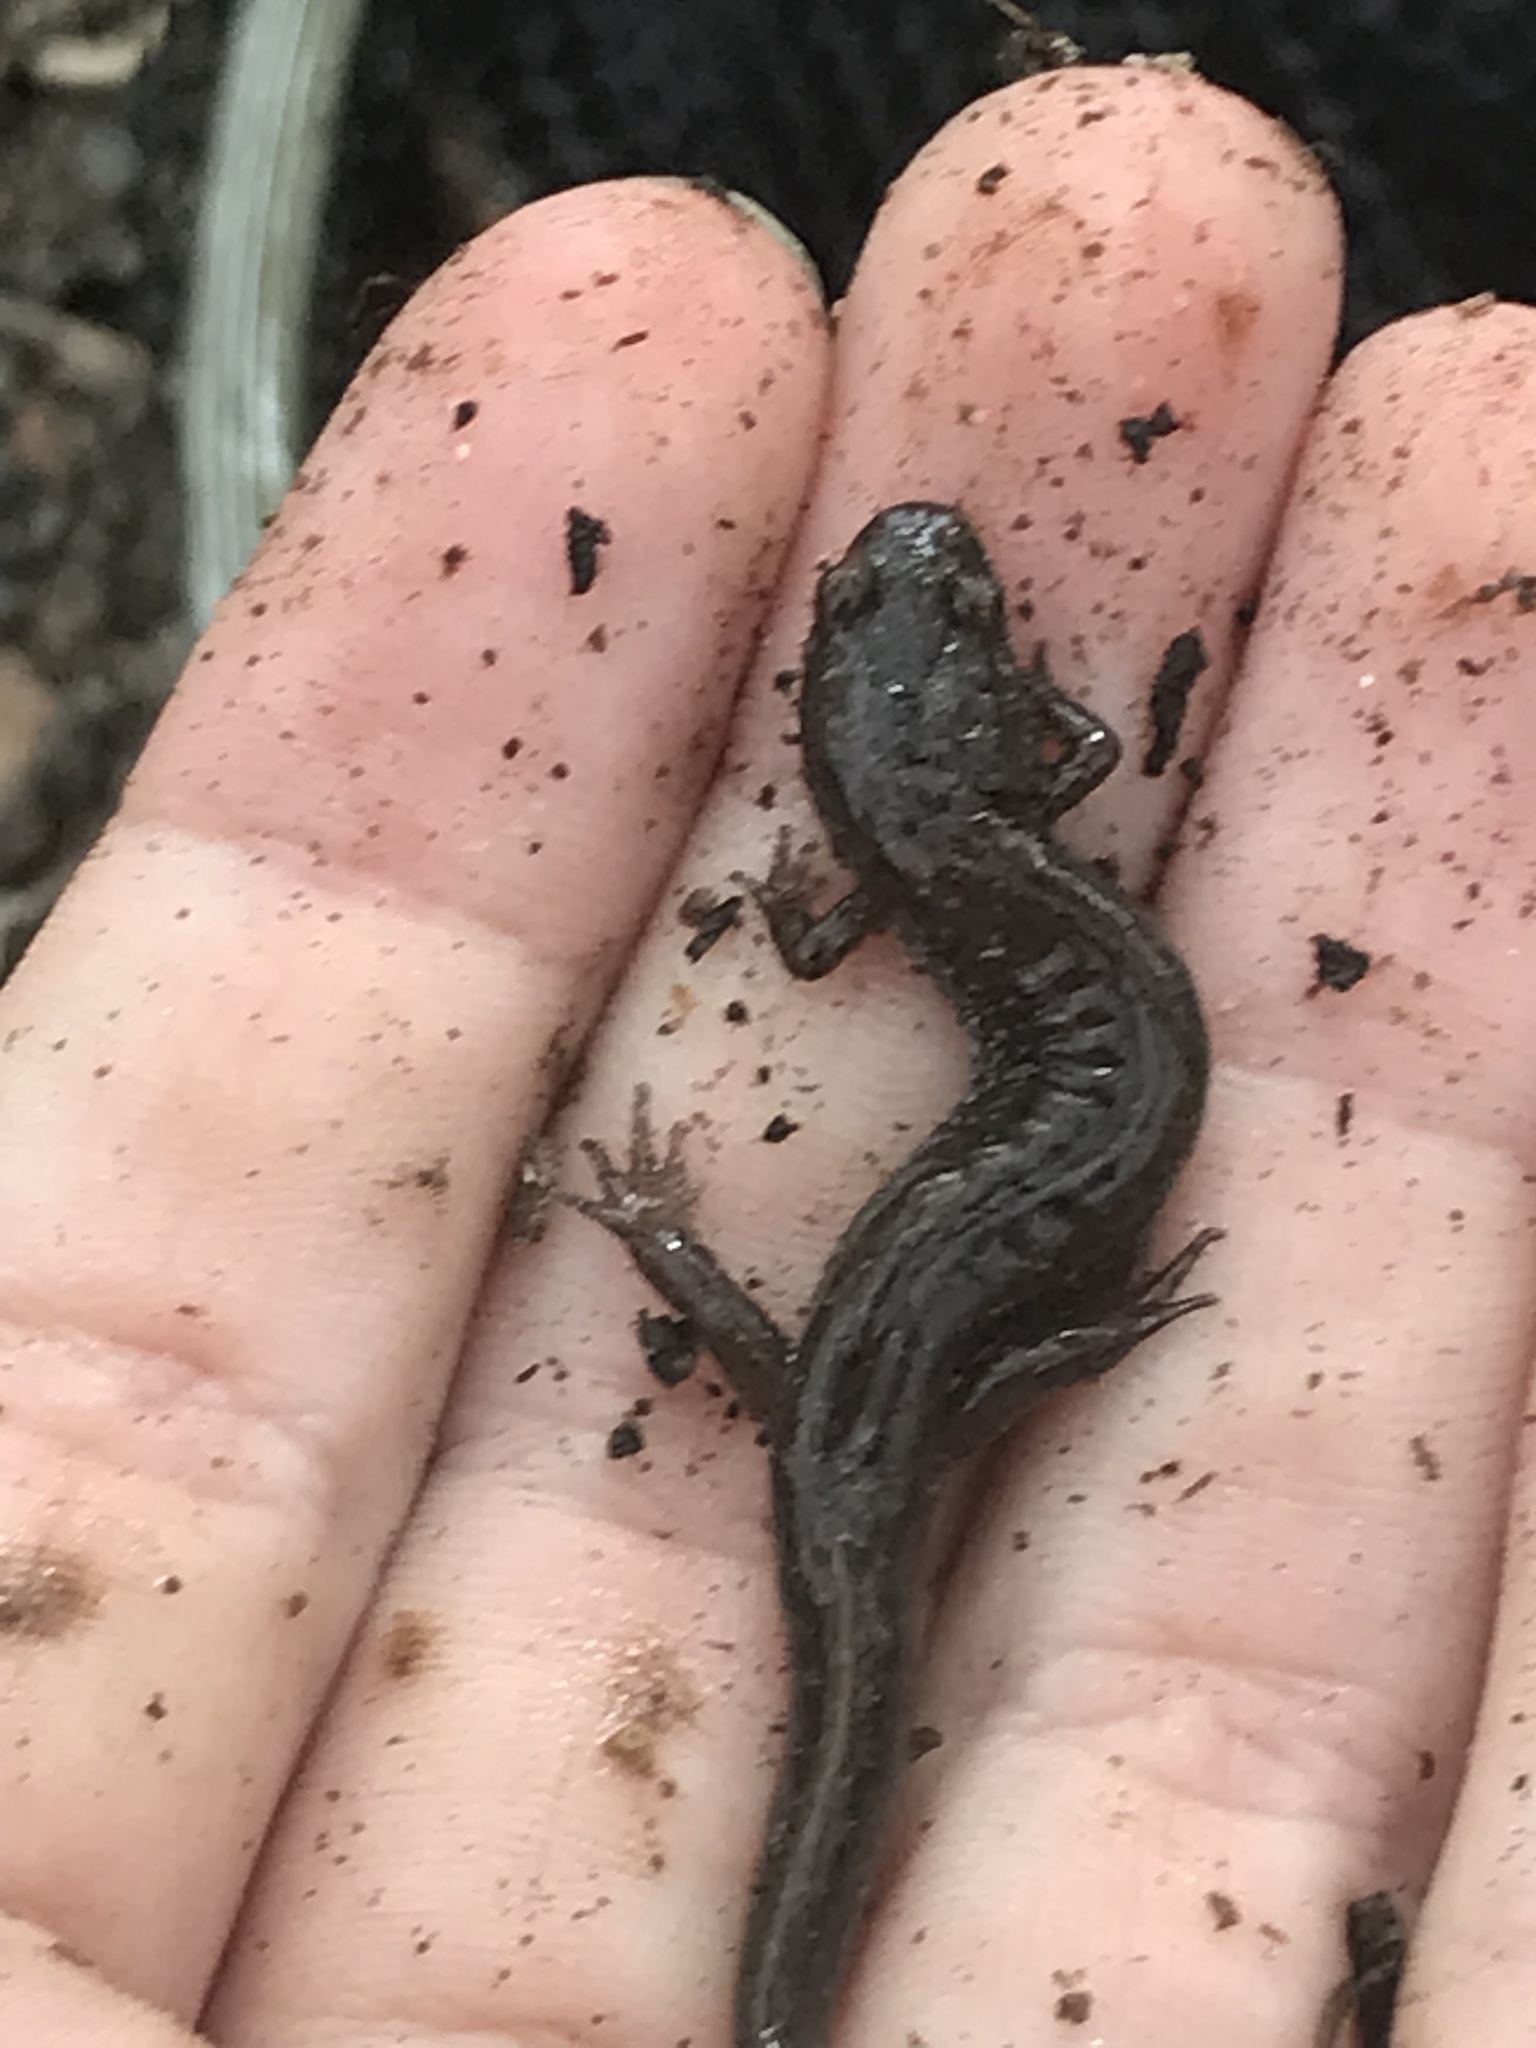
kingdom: Animalia
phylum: Chordata
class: Amphibia
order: Caudata
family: Plethodontidae
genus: Desmognathus
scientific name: Desmognathus fuscus
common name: Northern dusky salamander
